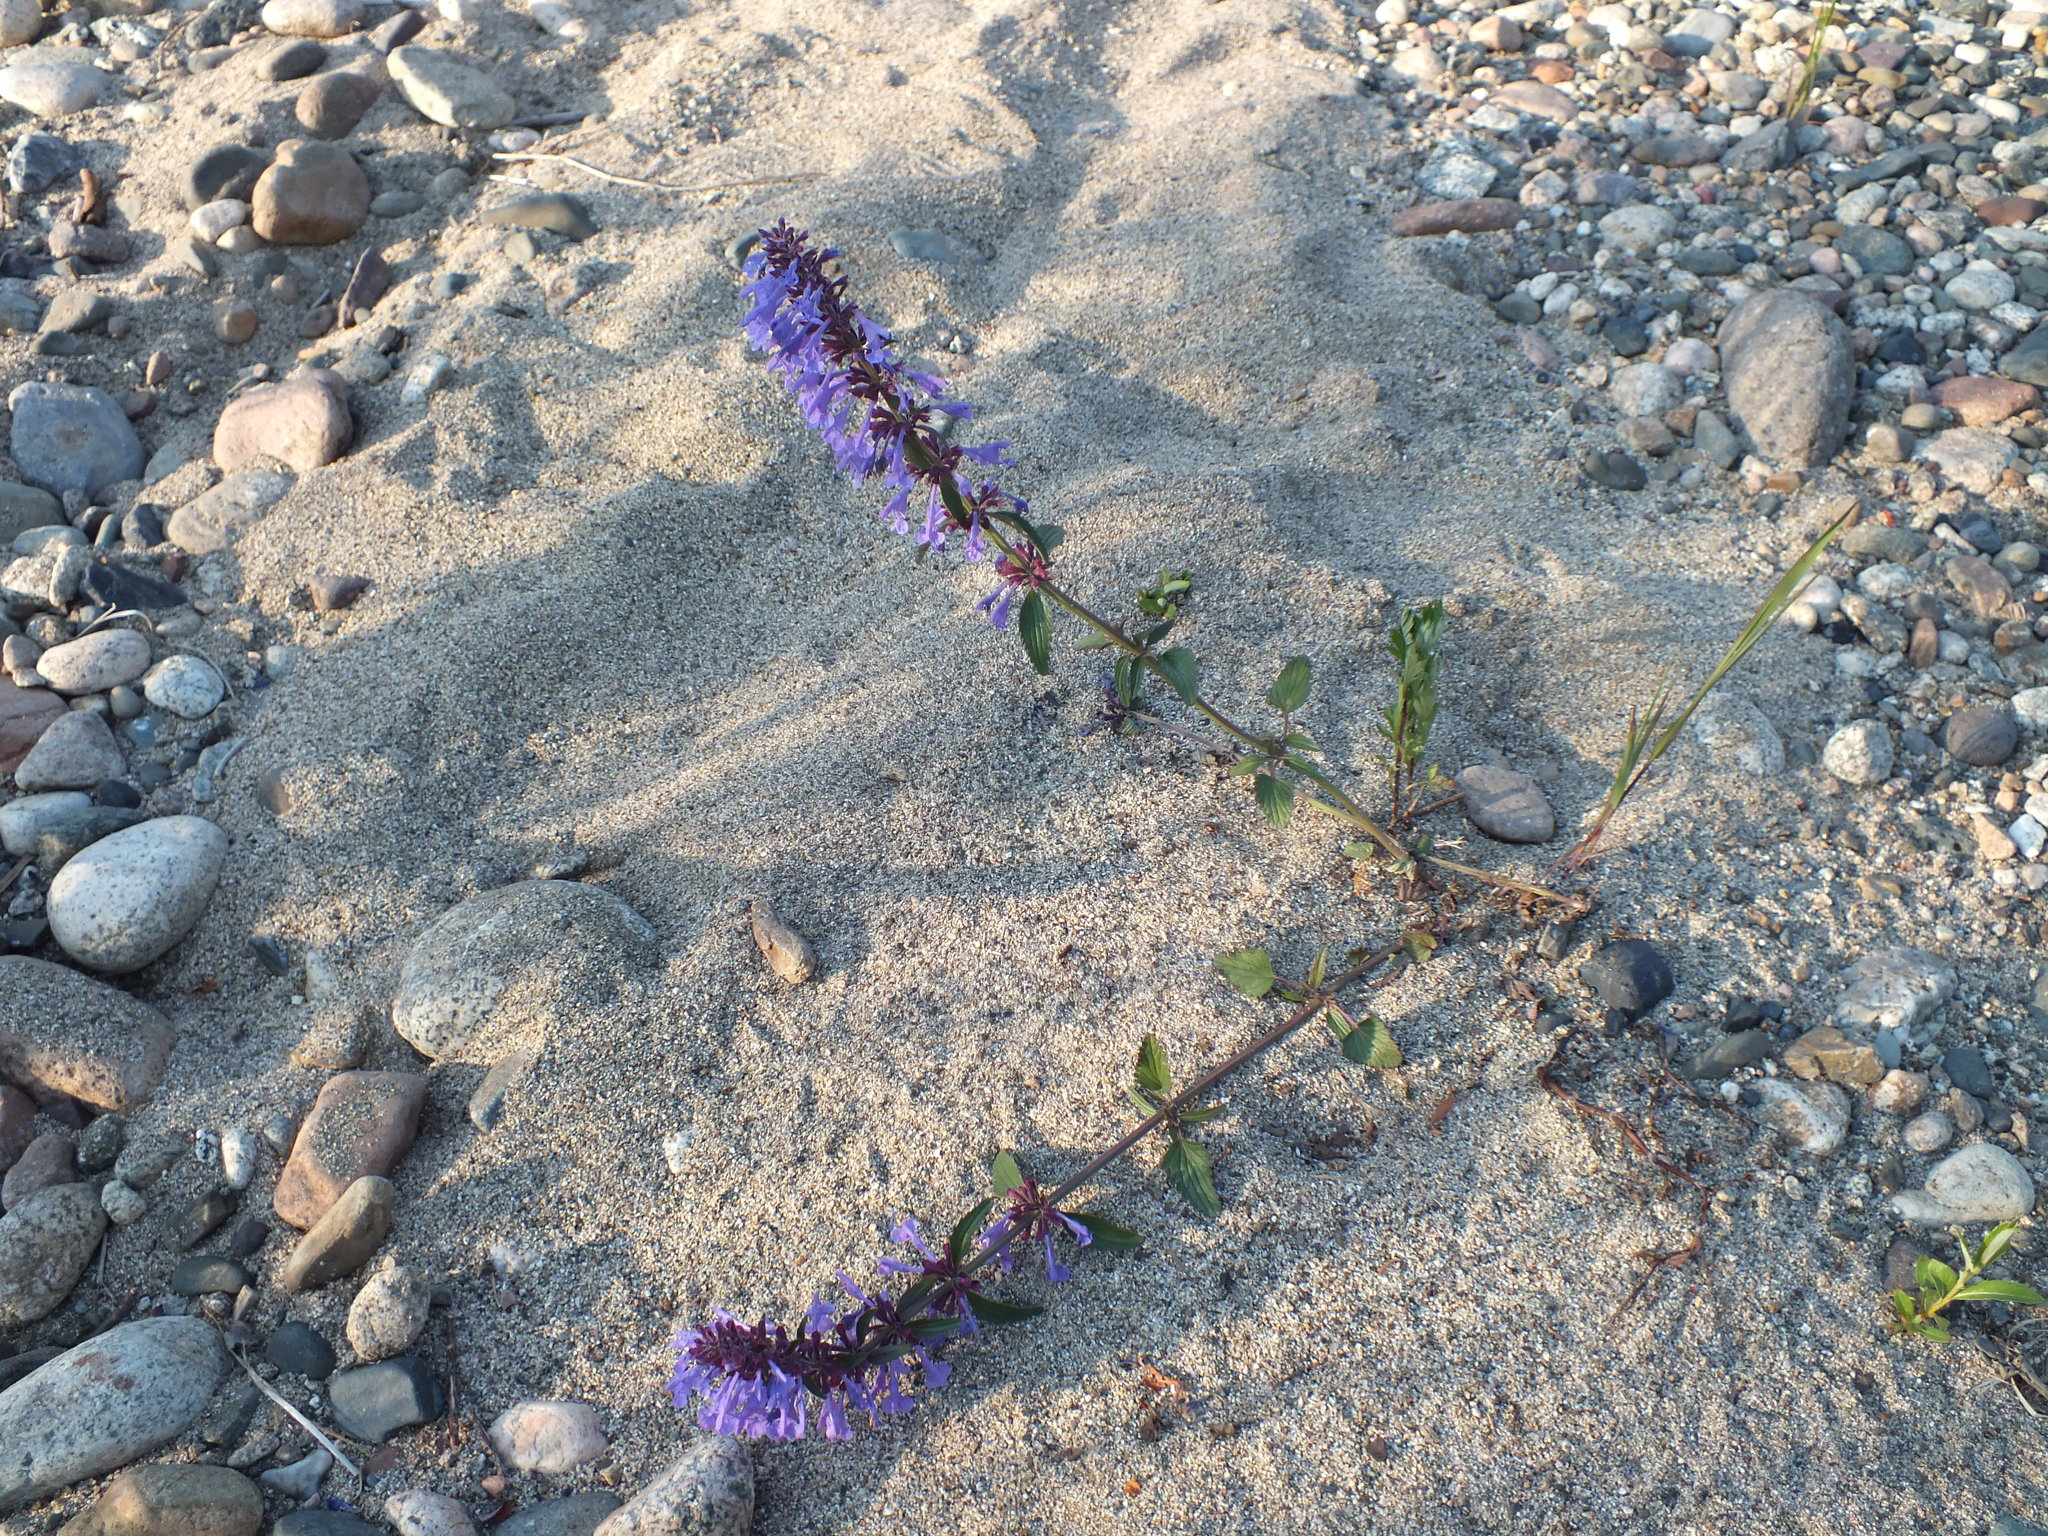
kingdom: Plantae
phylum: Tracheophyta
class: Magnoliopsida
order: Lamiales
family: Lamiaceae
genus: Dracocephalum
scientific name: Dracocephalum nutans
